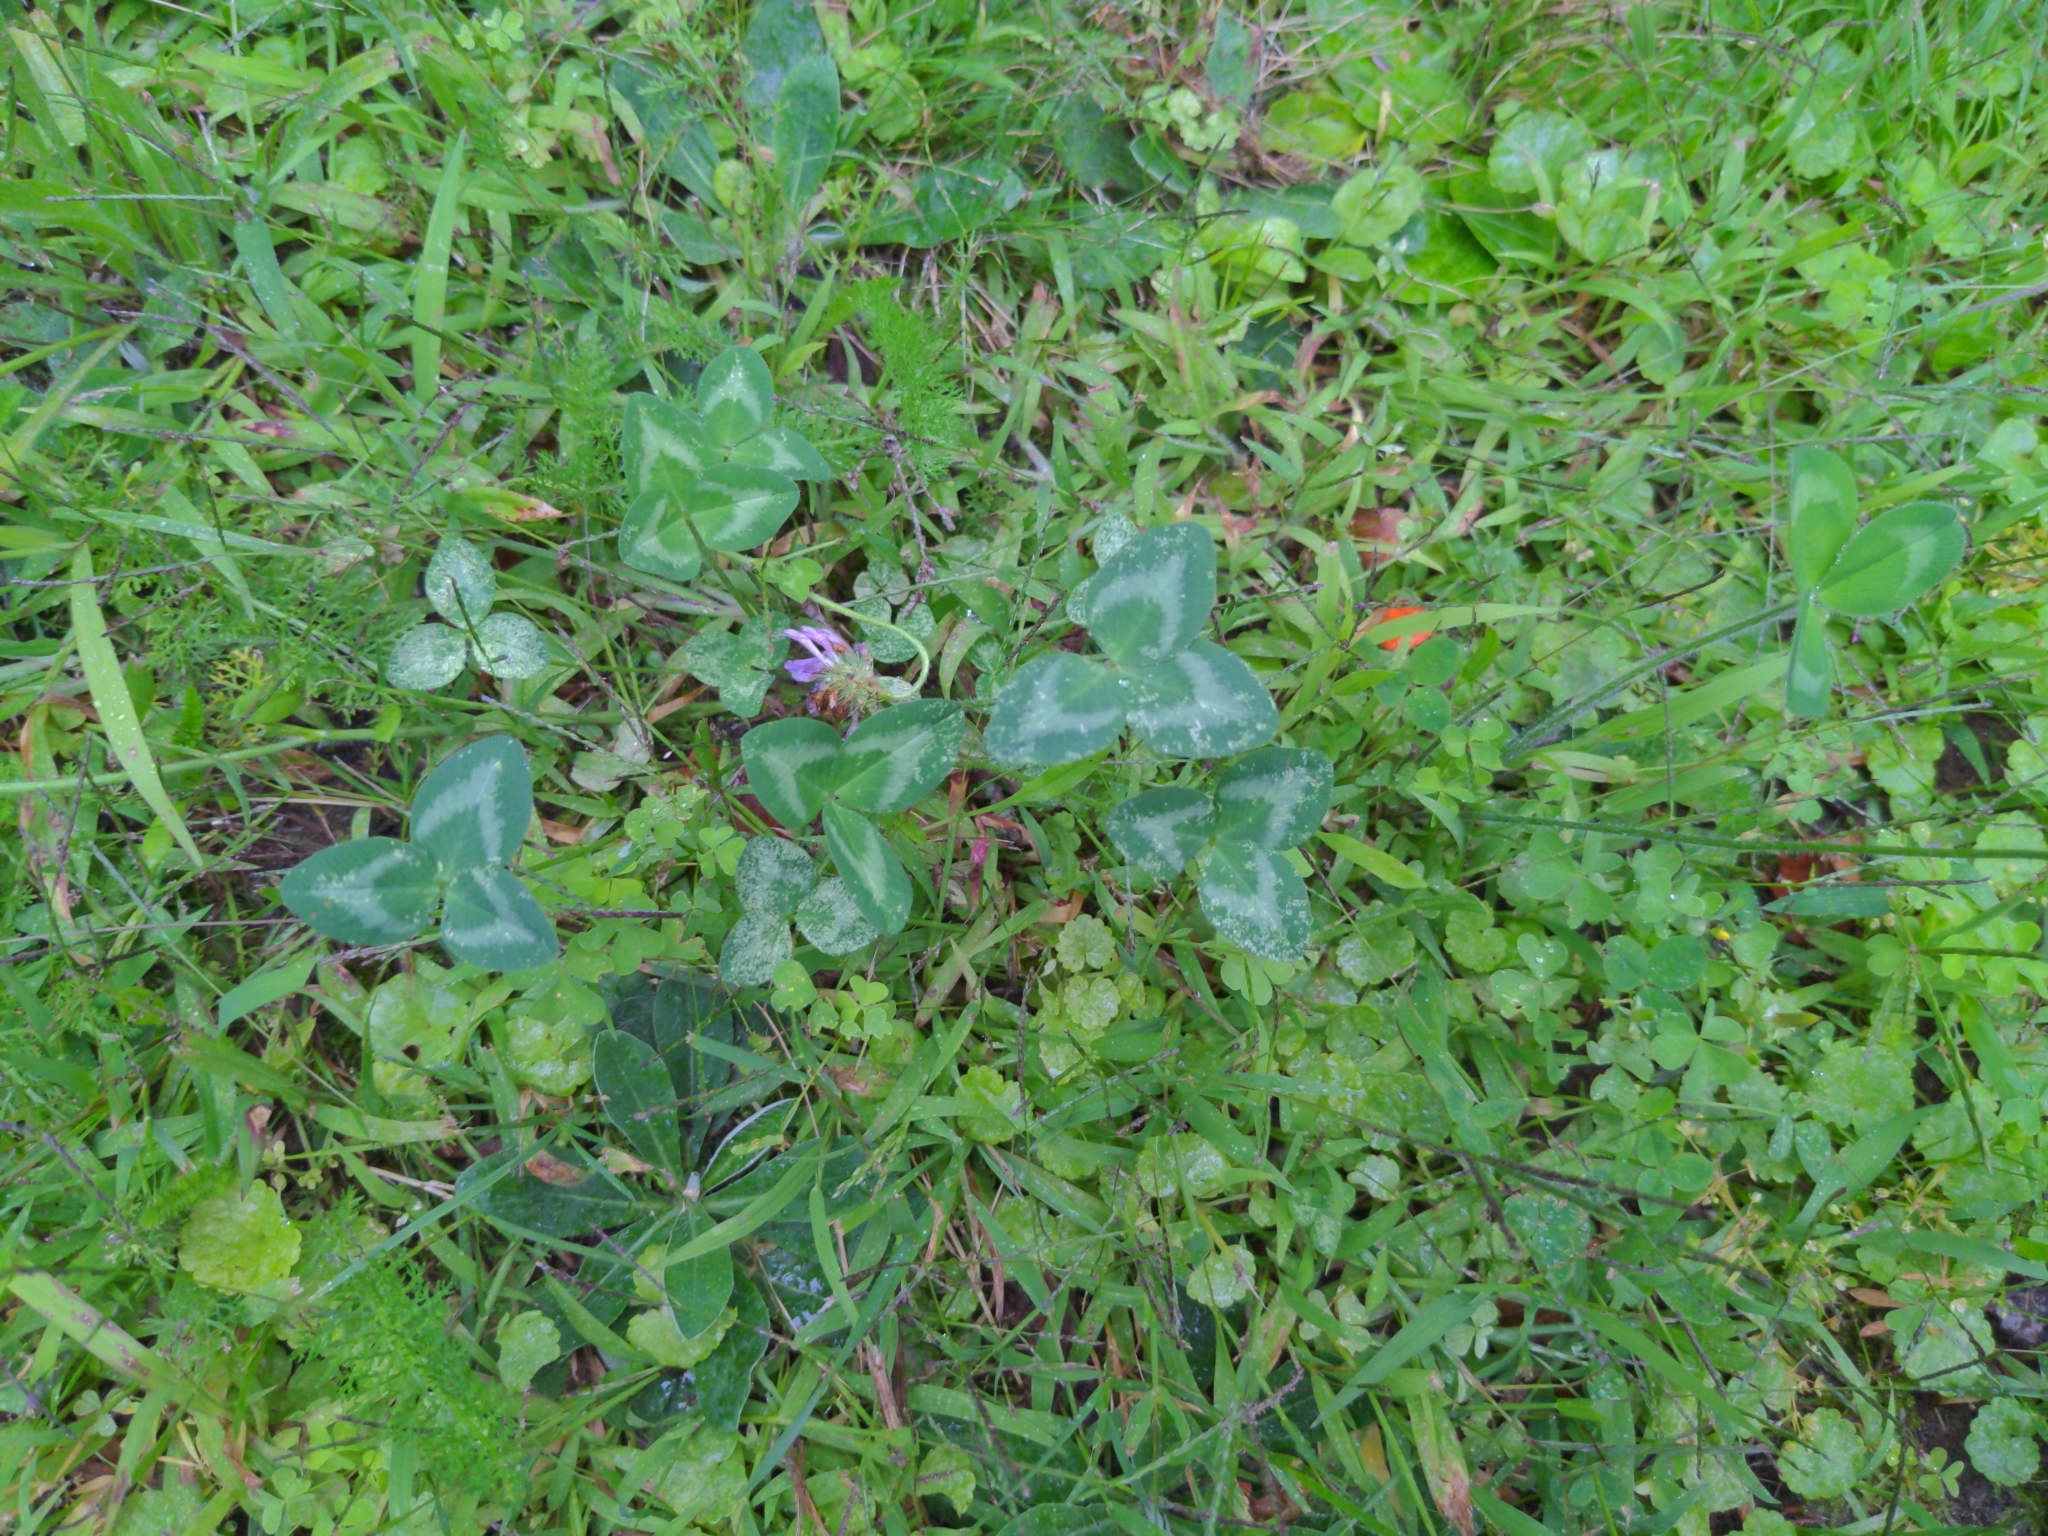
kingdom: Plantae
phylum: Tracheophyta
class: Magnoliopsida
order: Fabales
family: Fabaceae
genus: Trifolium
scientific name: Trifolium pratense
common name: Red clover
